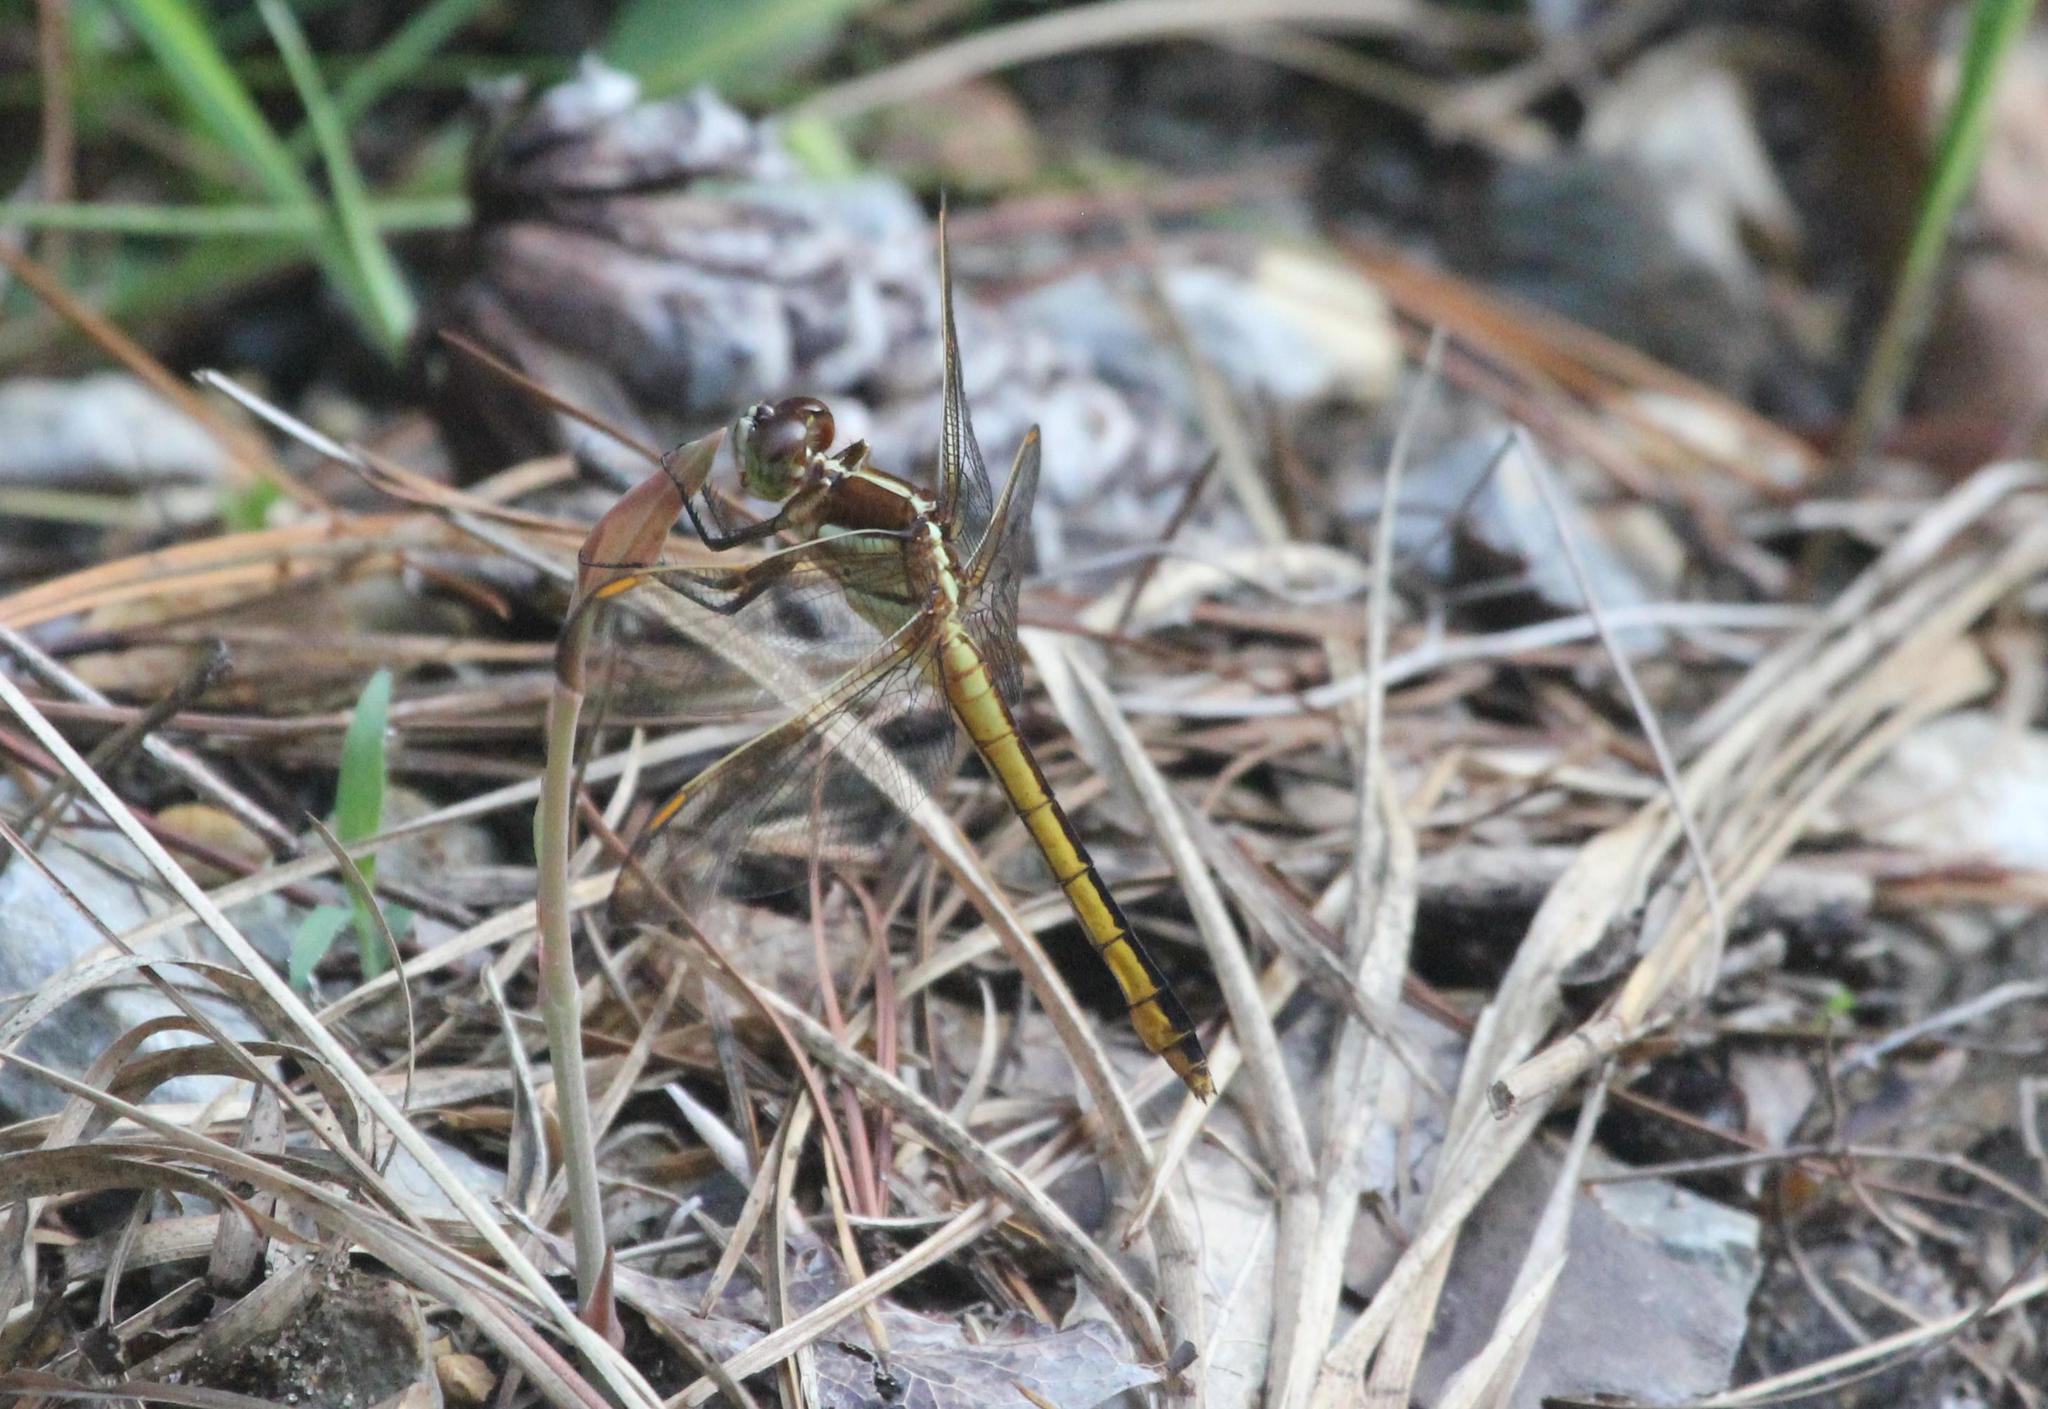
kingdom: Animalia
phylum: Arthropoda
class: Insecta
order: Odonata
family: Libellulidae
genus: Libellula
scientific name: Libellula auripennis
